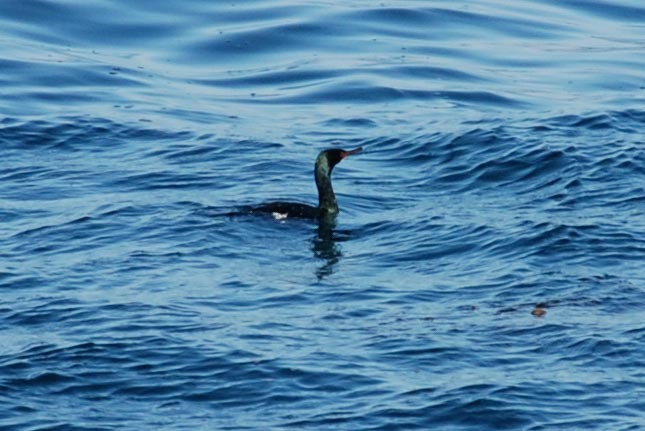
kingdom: Animalia
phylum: Chordata
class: Aves
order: Suliformes
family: Phalacrocoracidae
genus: Phalacrocorax
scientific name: Phalacrocorax pelagicus
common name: Pelagic cormorant
